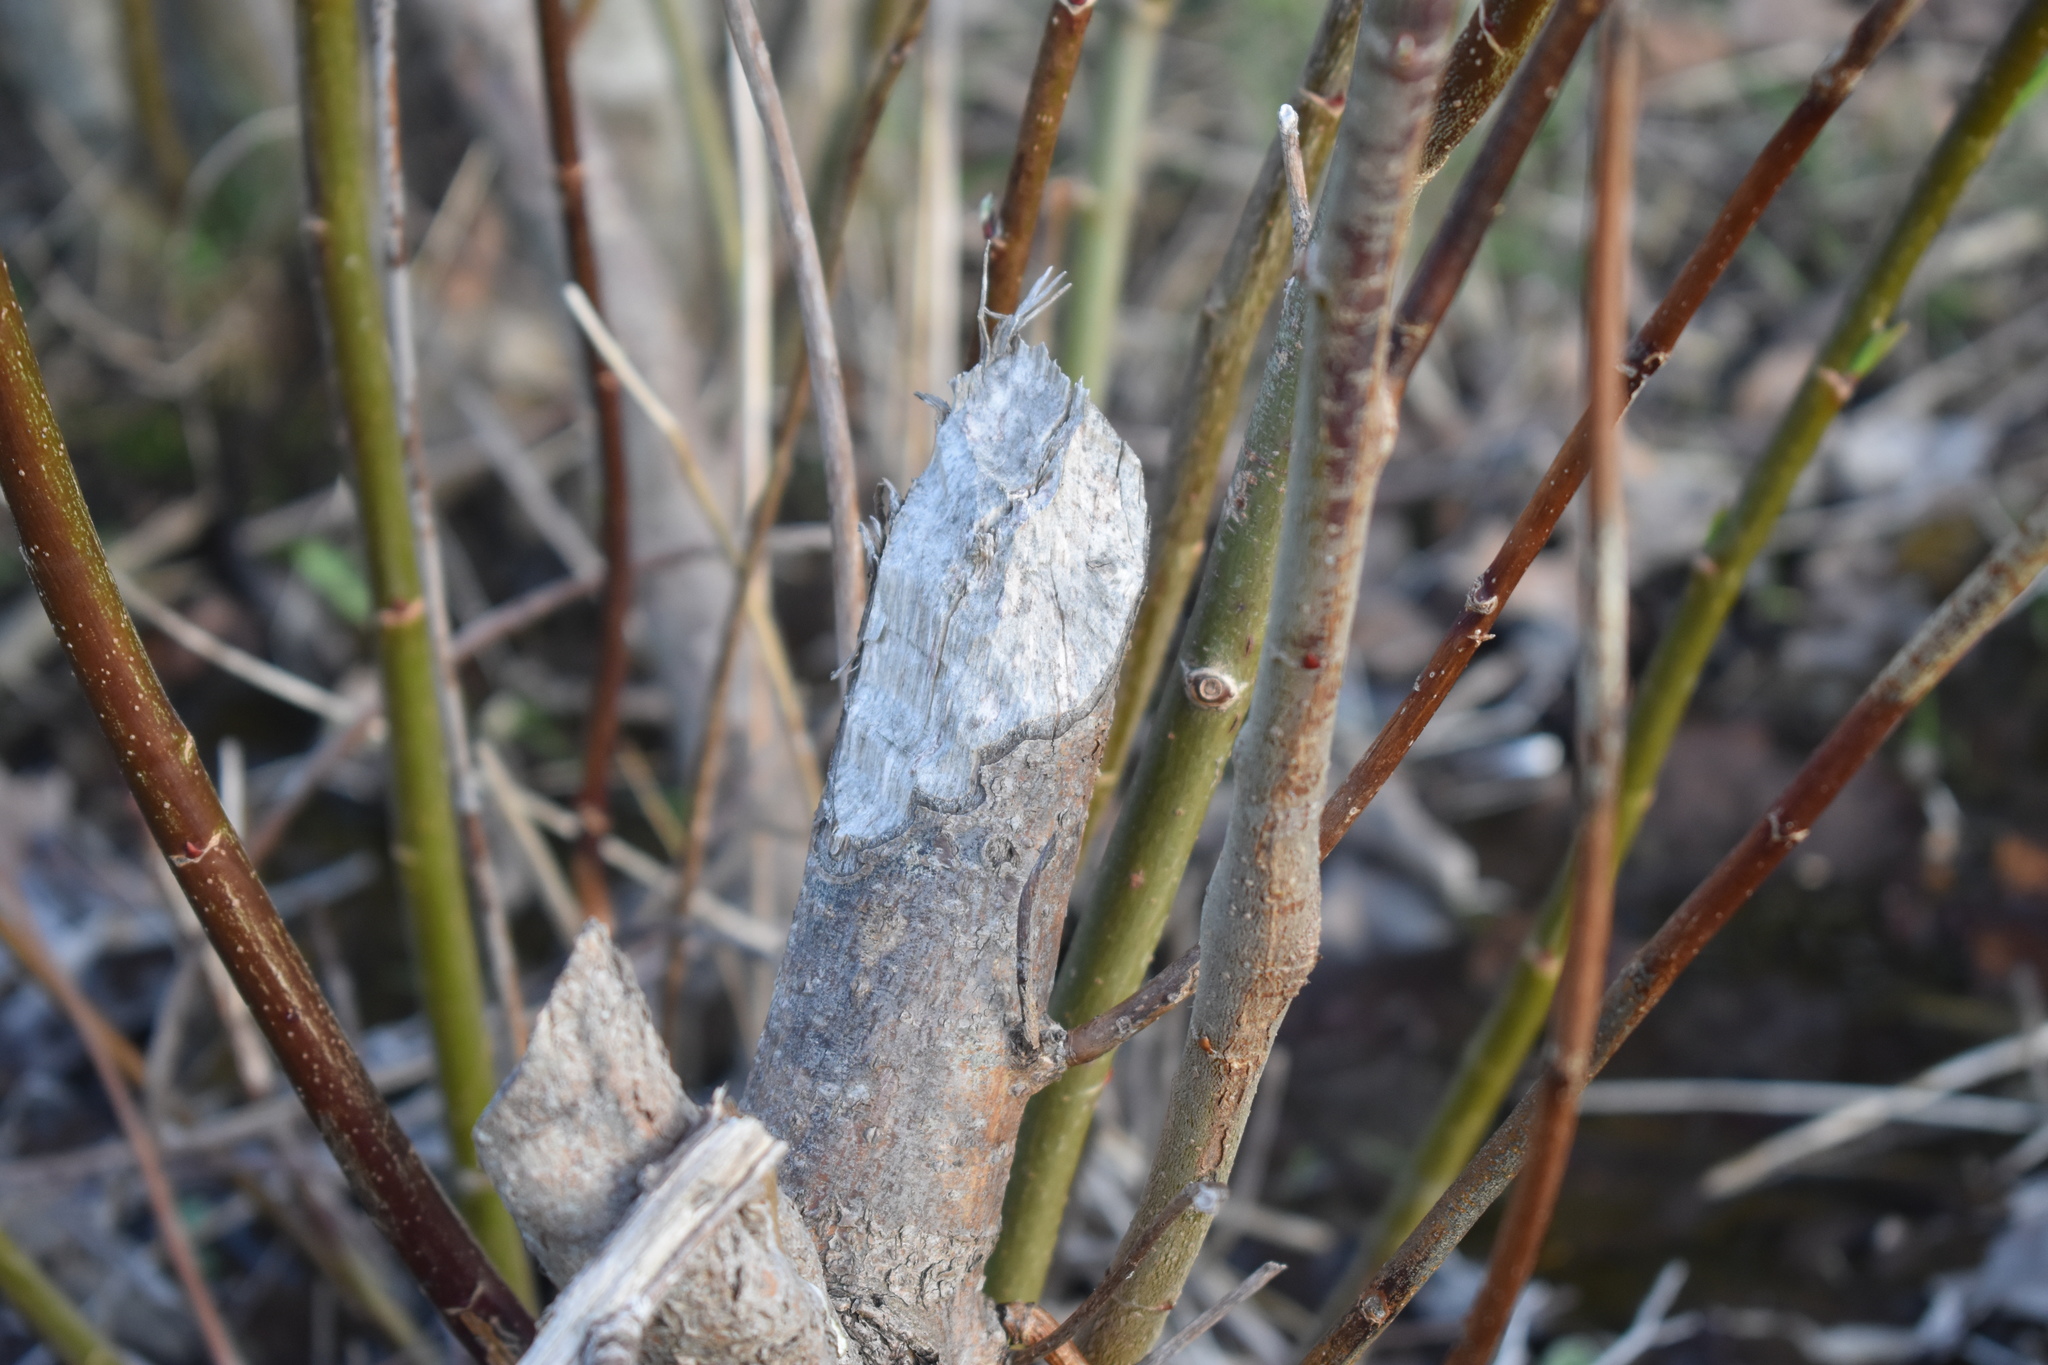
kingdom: Animalia
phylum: Chordata
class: Mammalia
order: Rodentia
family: Castoridae
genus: Castor
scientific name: Castor canadensis
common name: American beaver
